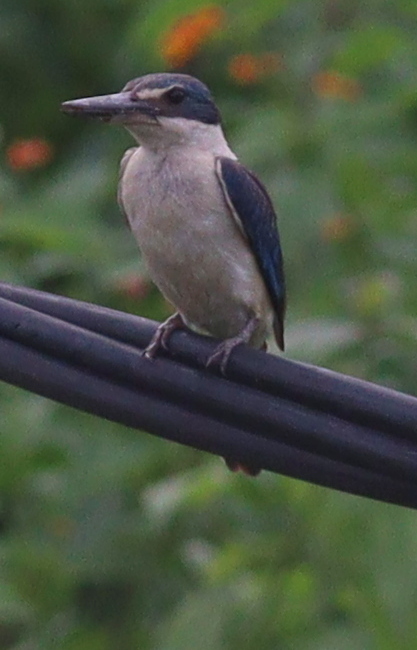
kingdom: Animalia
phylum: Chordata
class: Aves
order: Coraciiformes
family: Alcedinidae
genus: Todiramphus
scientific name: Todiramphus chloris
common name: Collared kingfisher
